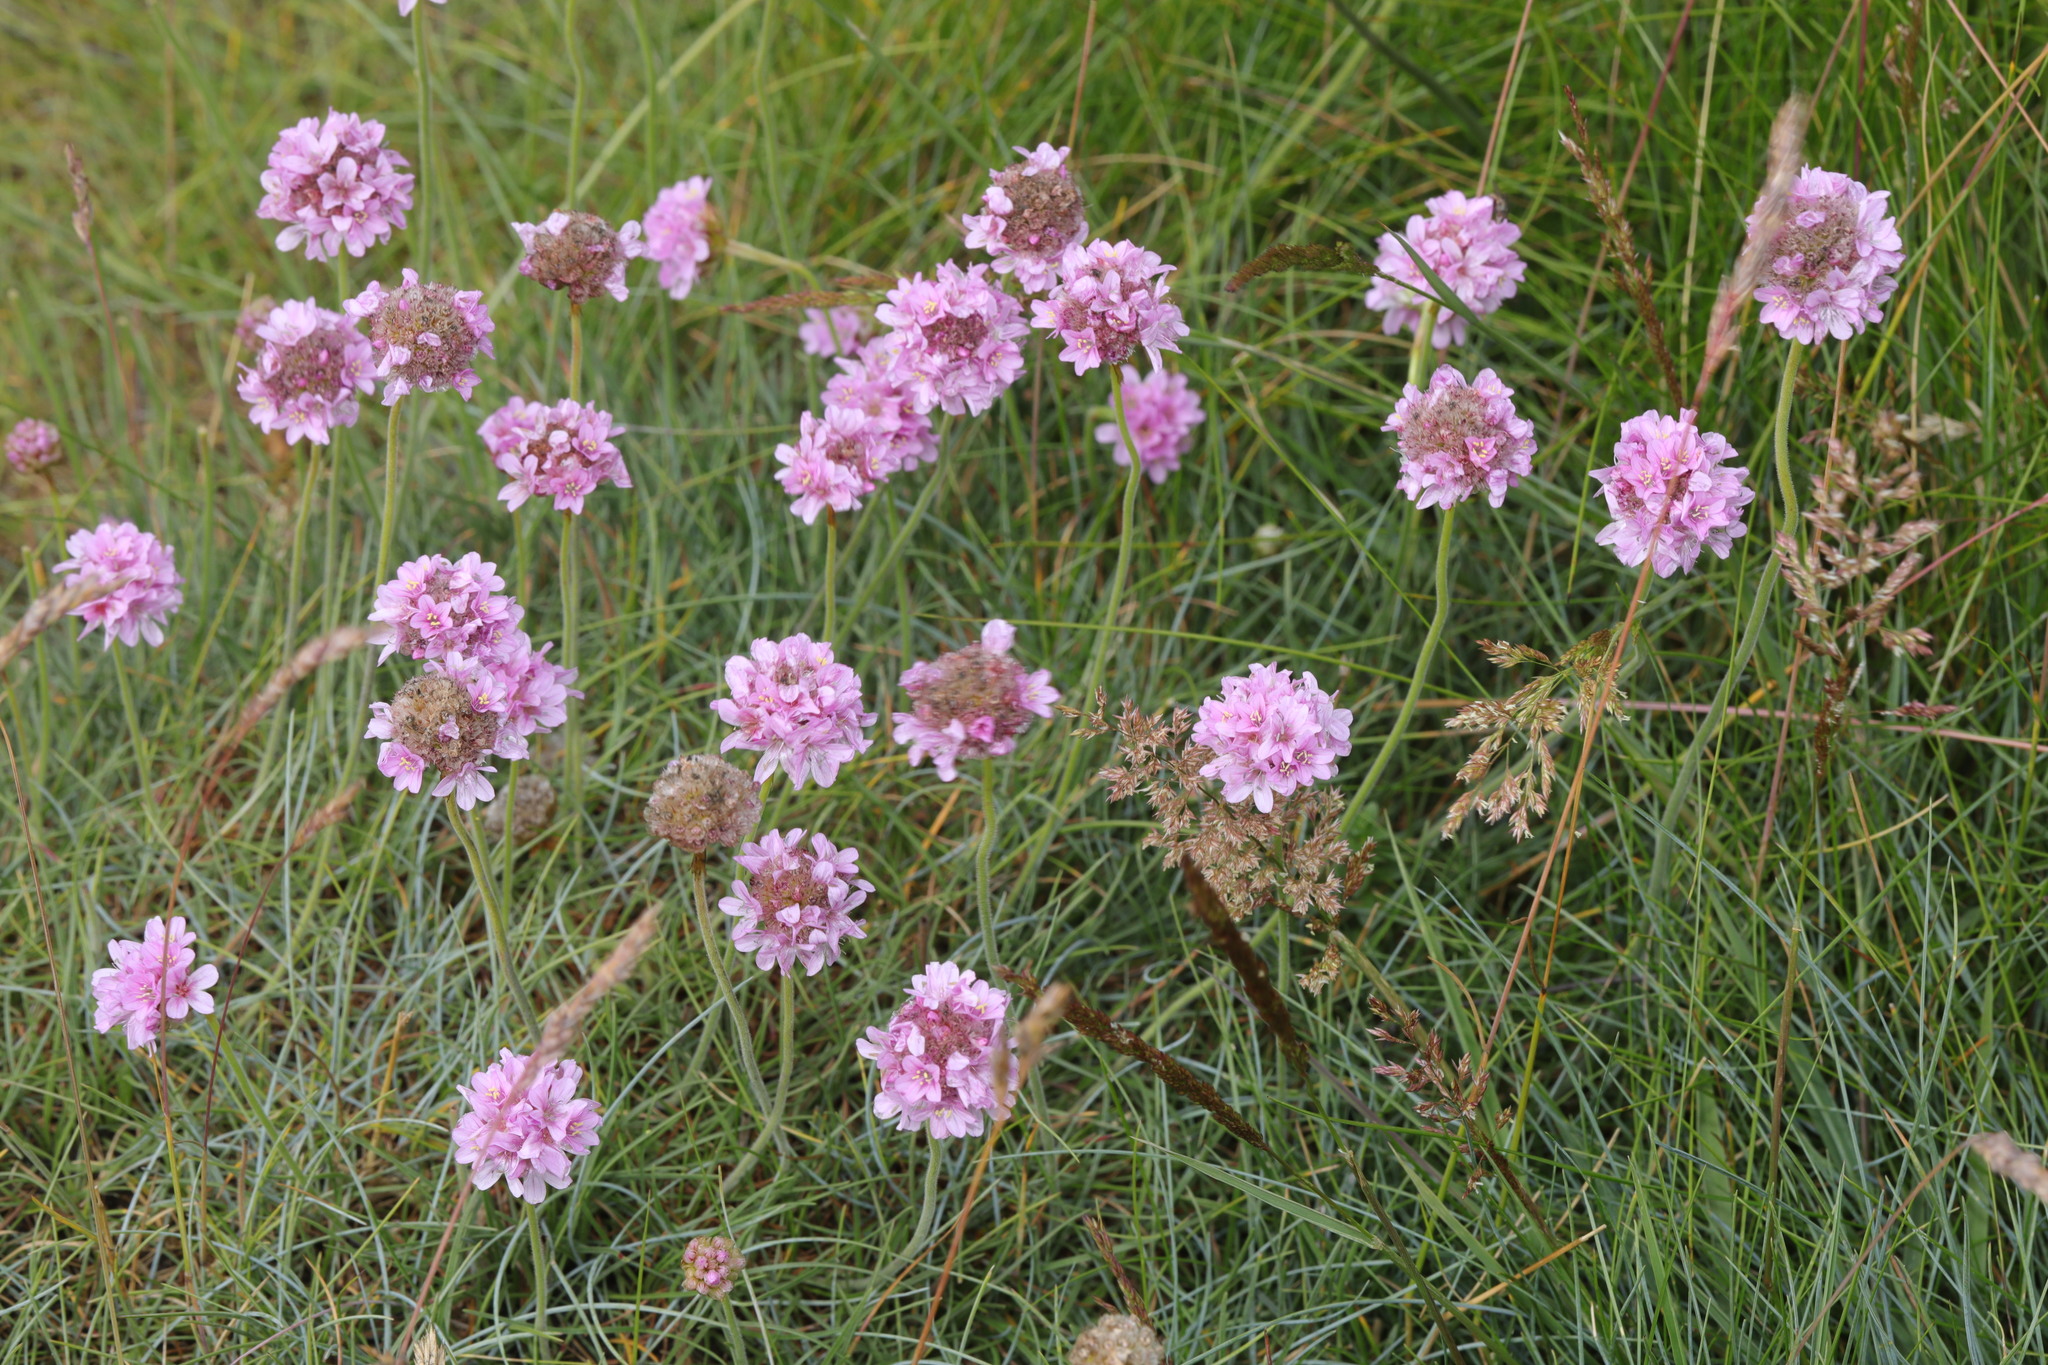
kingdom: Plantae
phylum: Tracheophyta
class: Magnoliopsida
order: Caryophyllales
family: Plumbaginaceae
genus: Armeria
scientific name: Armeria maritima
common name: Thrift
